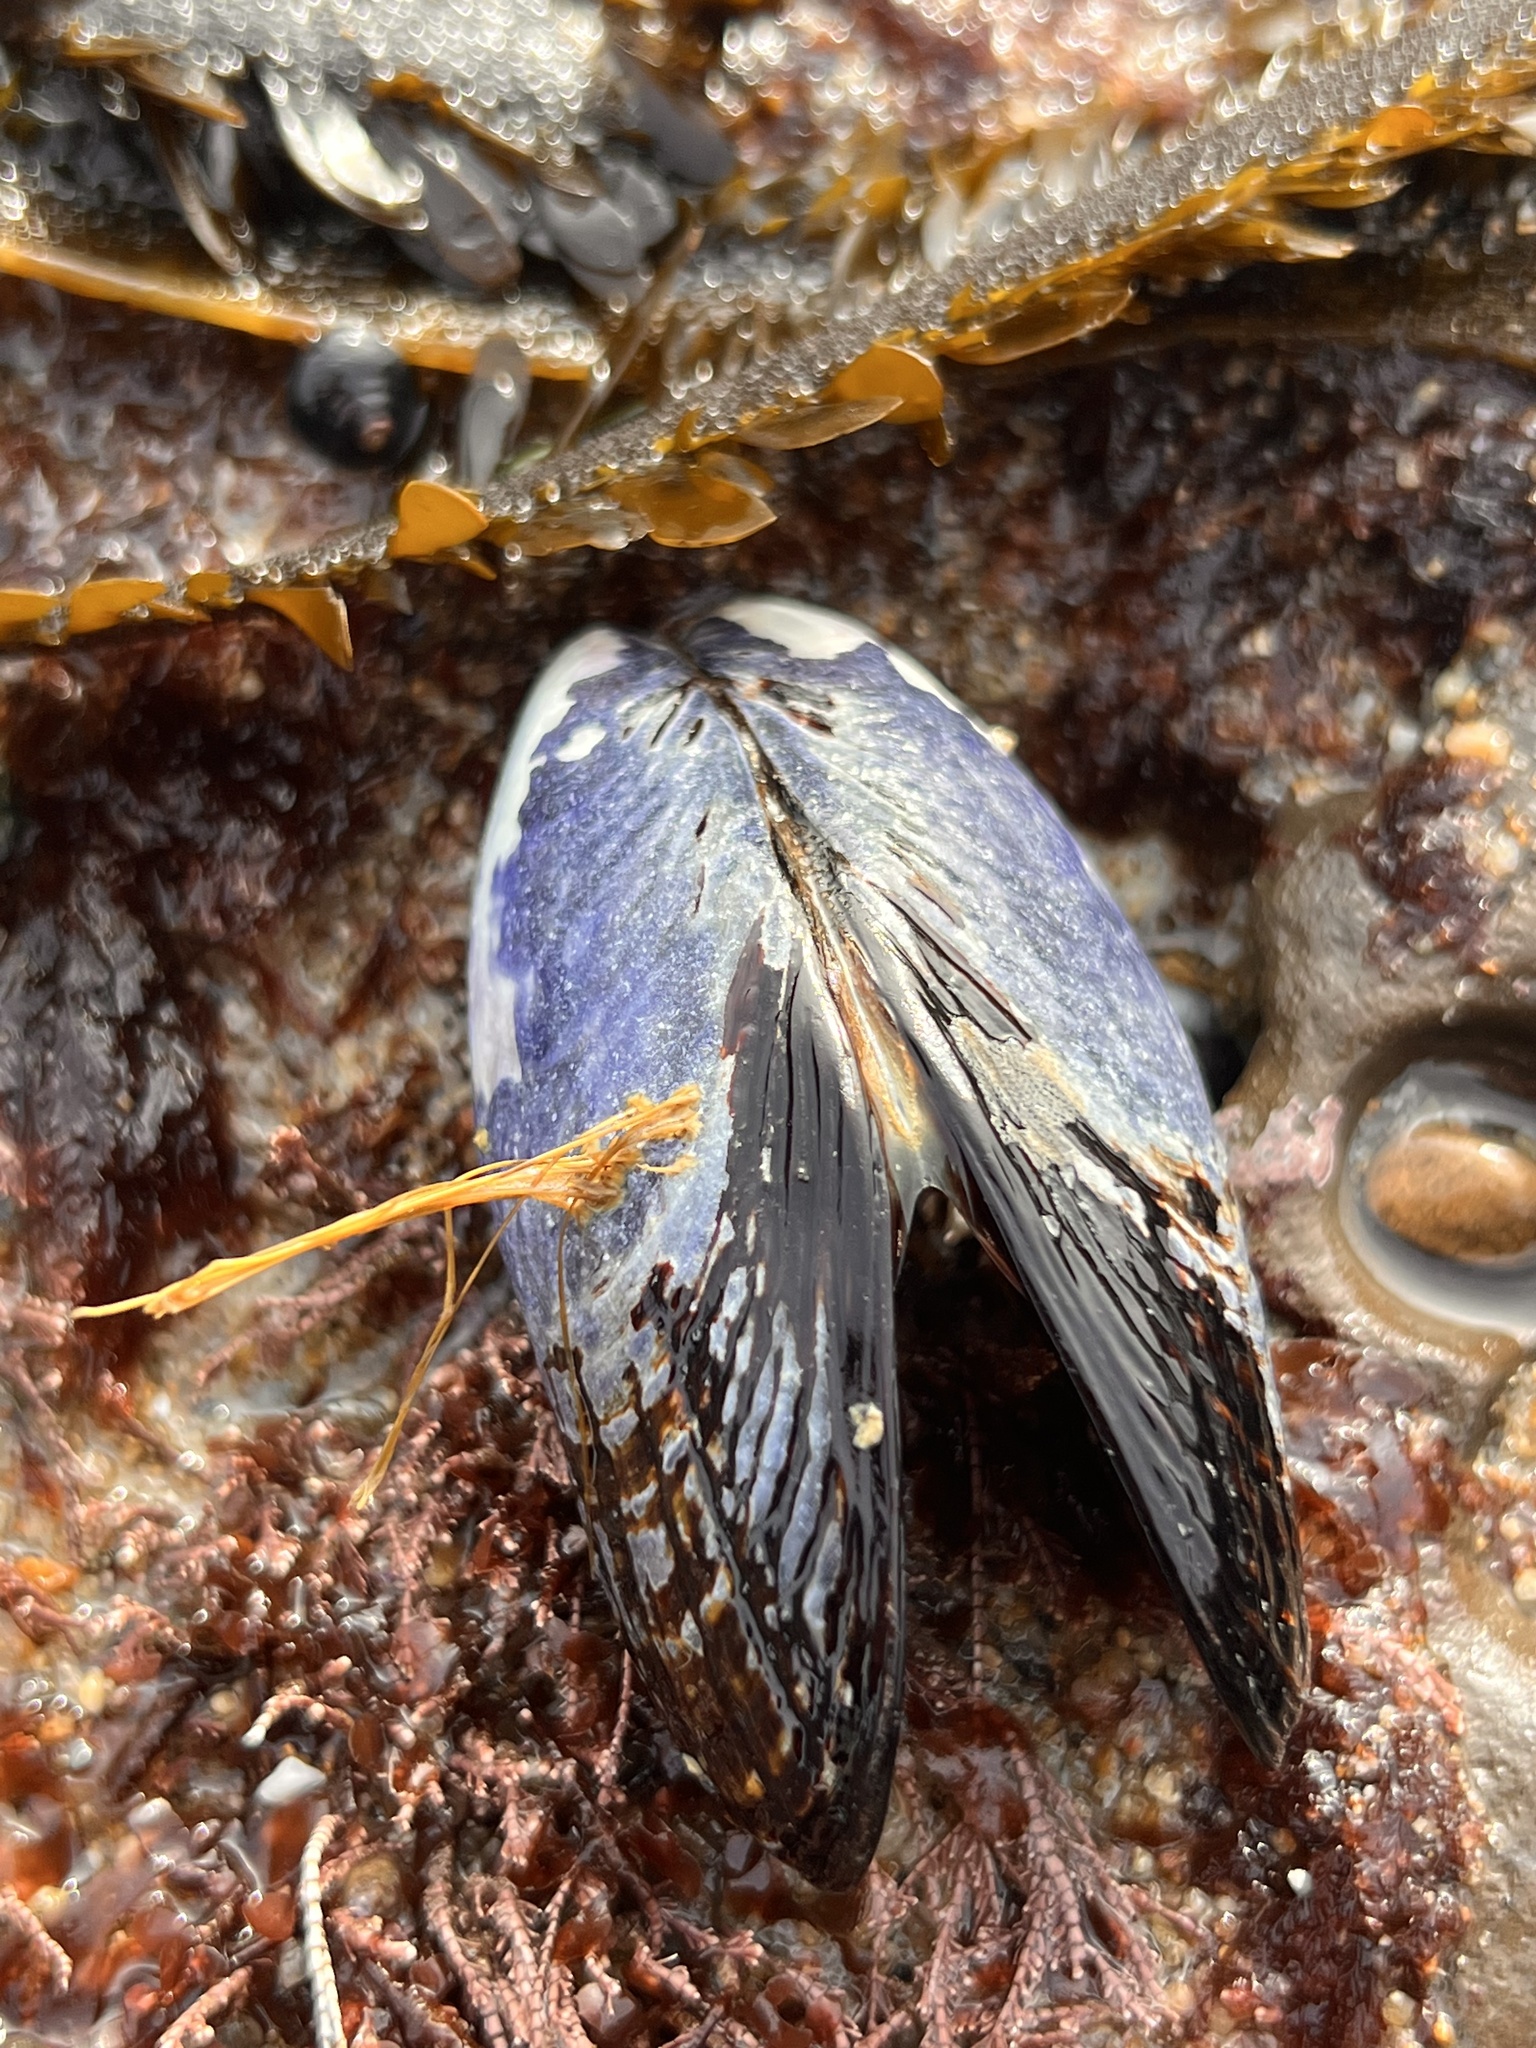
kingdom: Animalia
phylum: Mollusca
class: Bivalvia
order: Mytilida
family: Mytilidae
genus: Mytilus
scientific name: Mytilus californianus
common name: California mussel
